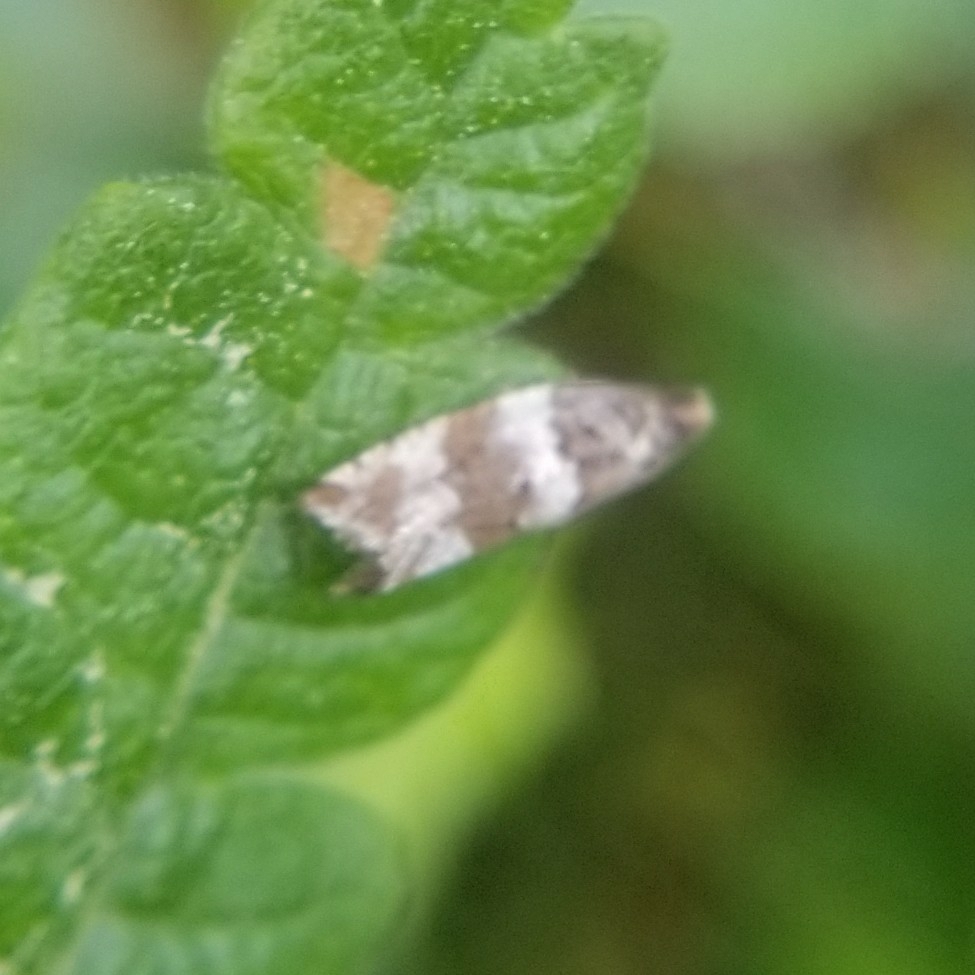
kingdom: Animalia
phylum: Arthropoda
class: Insecta
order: Lepidoptera
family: Tortricidae
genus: Gypsonoma
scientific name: Gypsonoma fasciolana
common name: Willow-and-poplar leafroller
